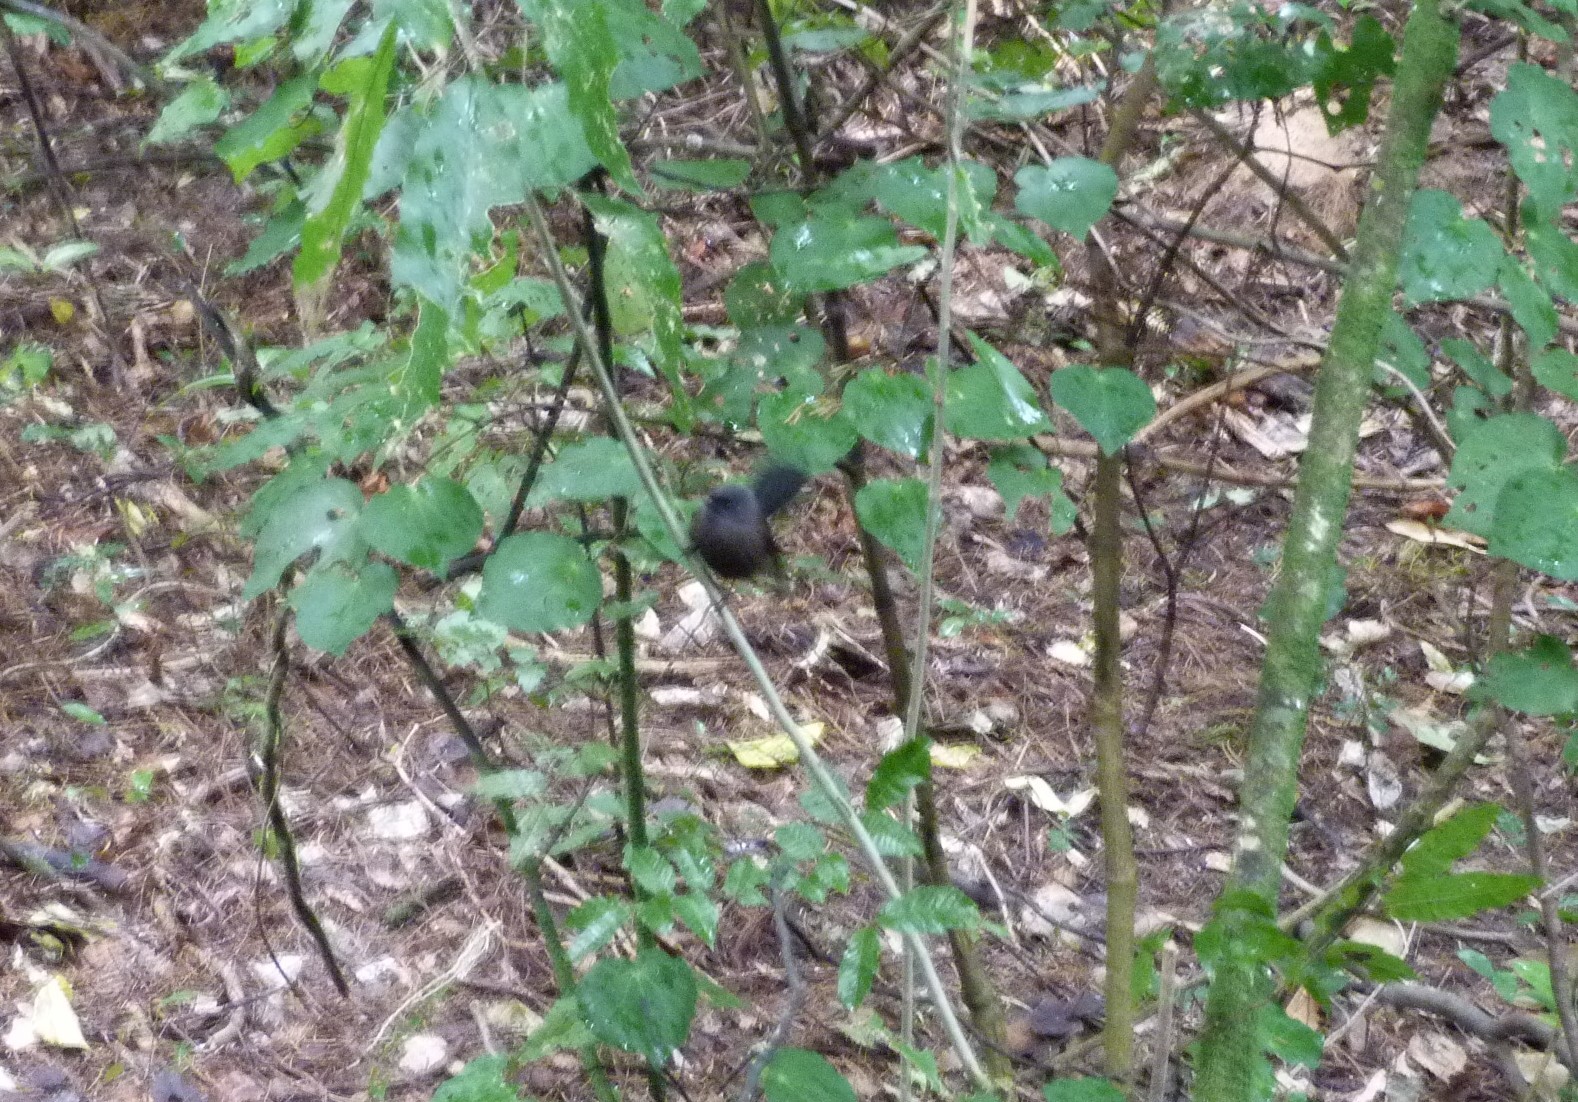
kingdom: Animalia
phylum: Chordata
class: Aves
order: Passeriformes
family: Rhipiduridae
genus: Rhipidura
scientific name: Rhipidura fuliginosa
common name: New zealand fantail
